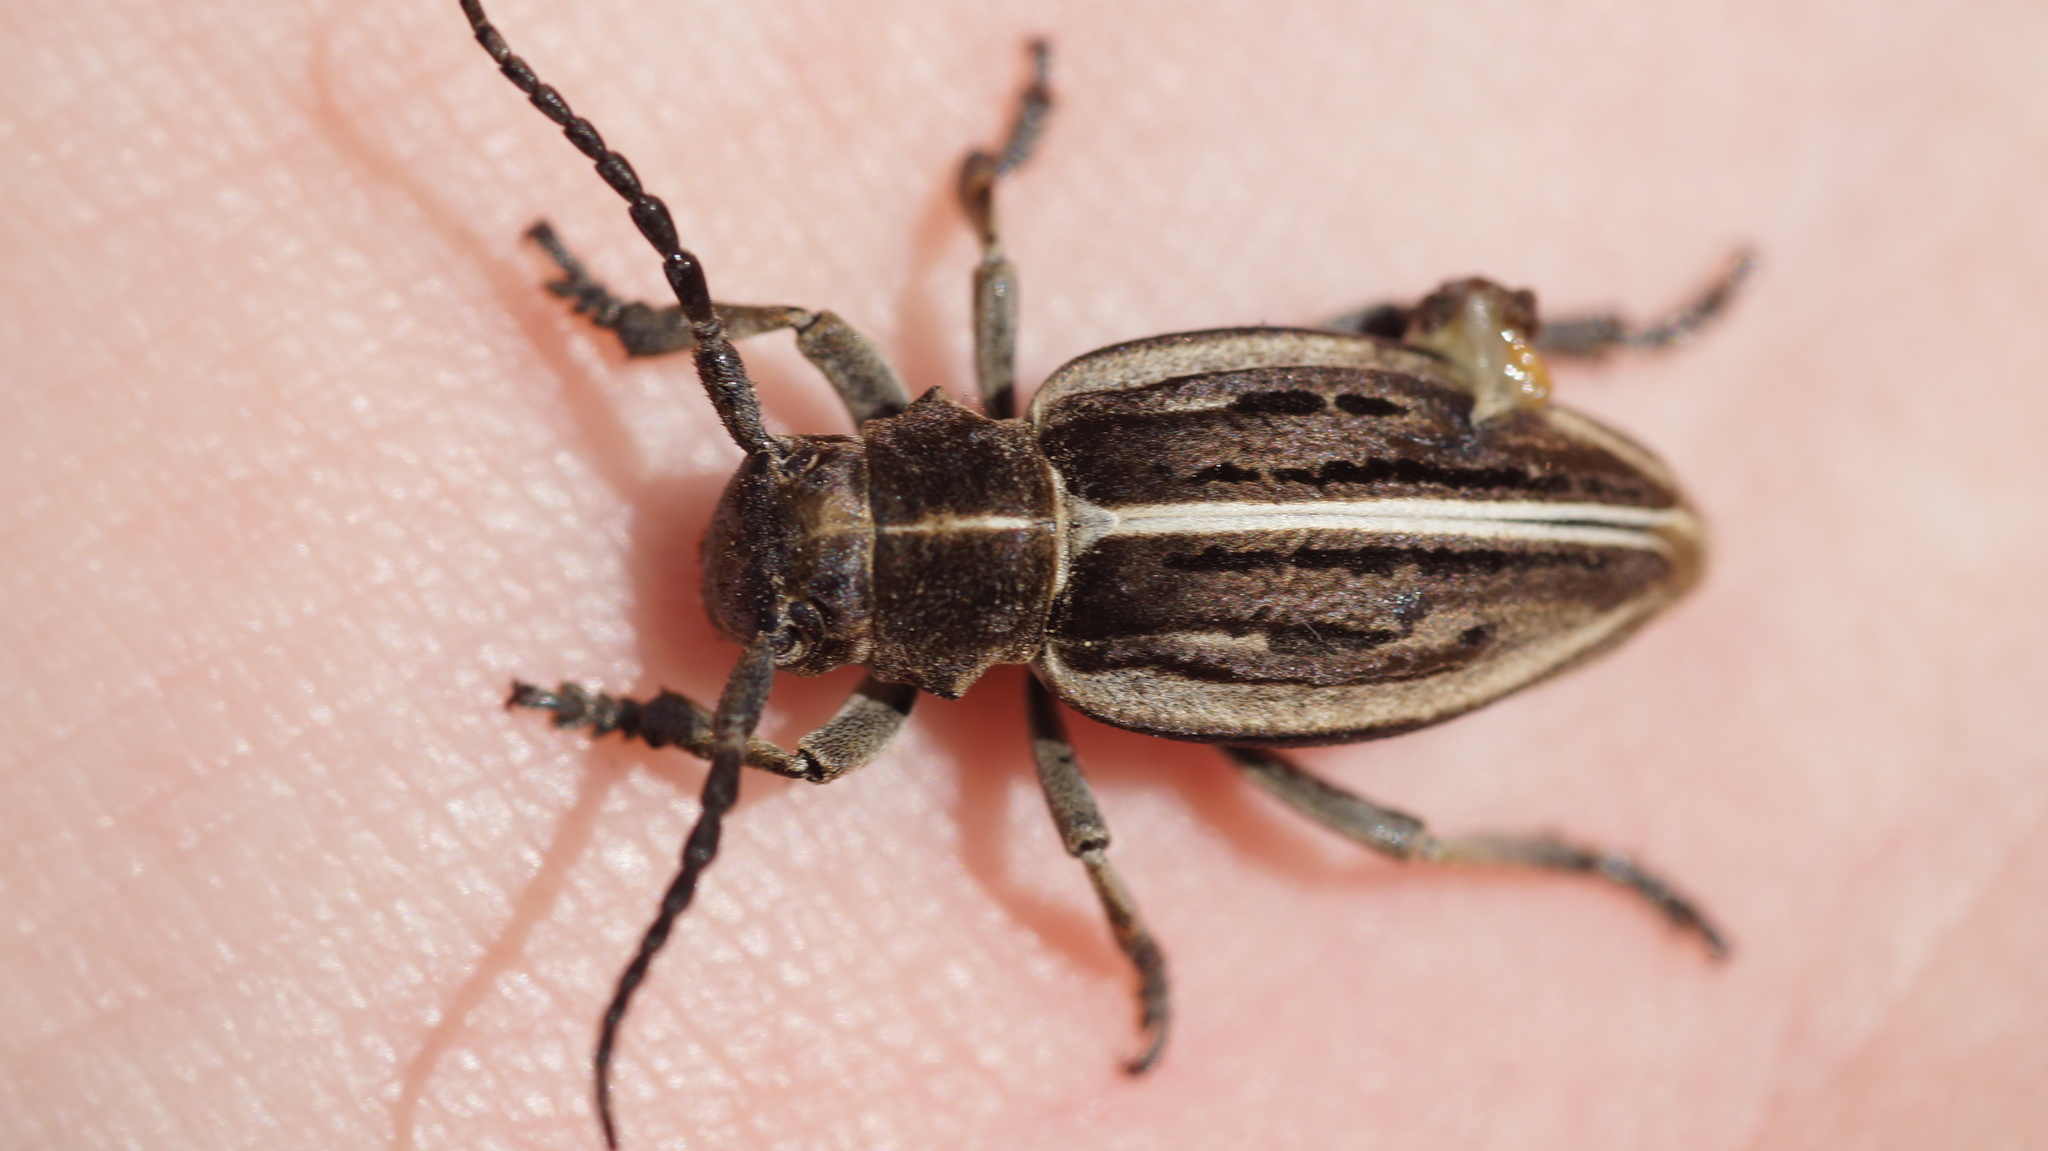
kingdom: Animalia
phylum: Arthropoda
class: Insecta
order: Coleoptera
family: Cerambycidae
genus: Dorcadion
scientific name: Dorcadion holosericeum
